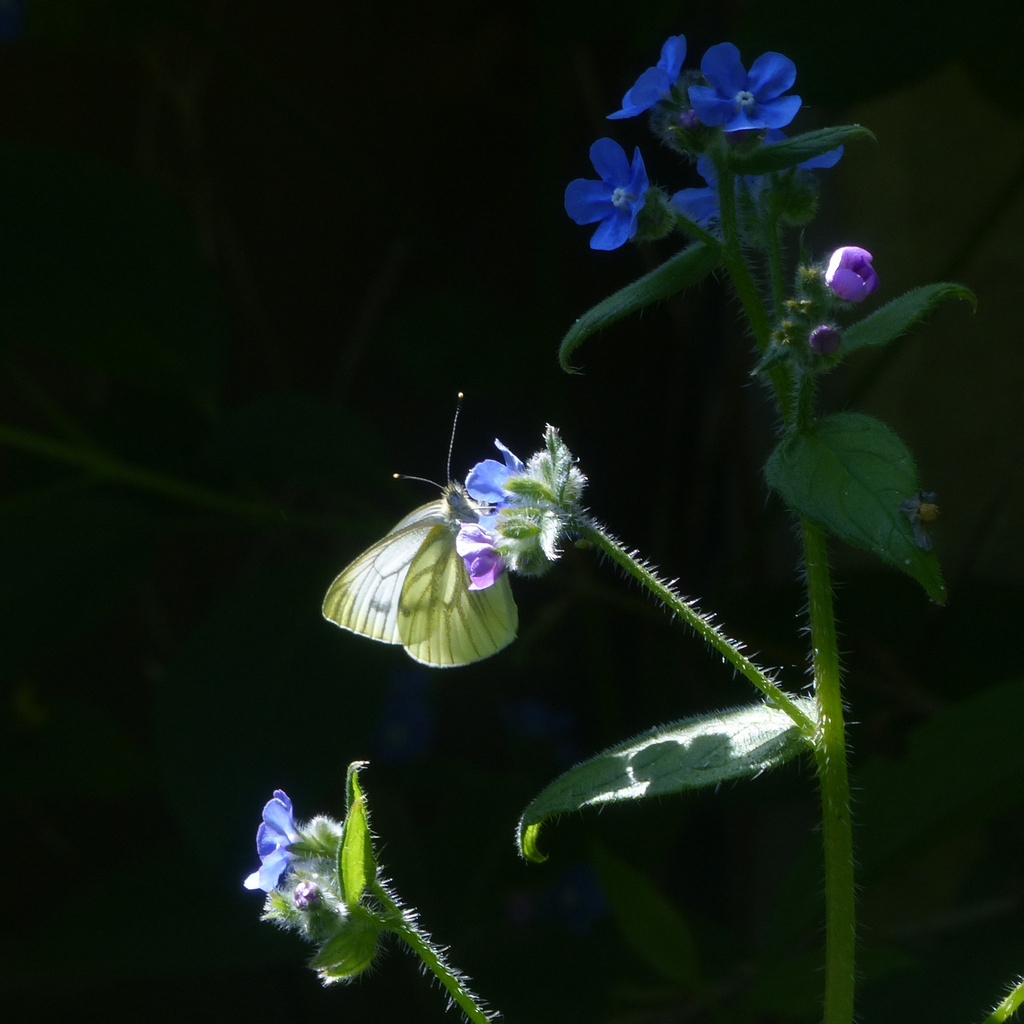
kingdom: Animalia
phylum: Arthropoda
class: Insecta
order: Lepidoptera
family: Pieridae
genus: Pieris
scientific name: Pieris napi
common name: Green-veined white
